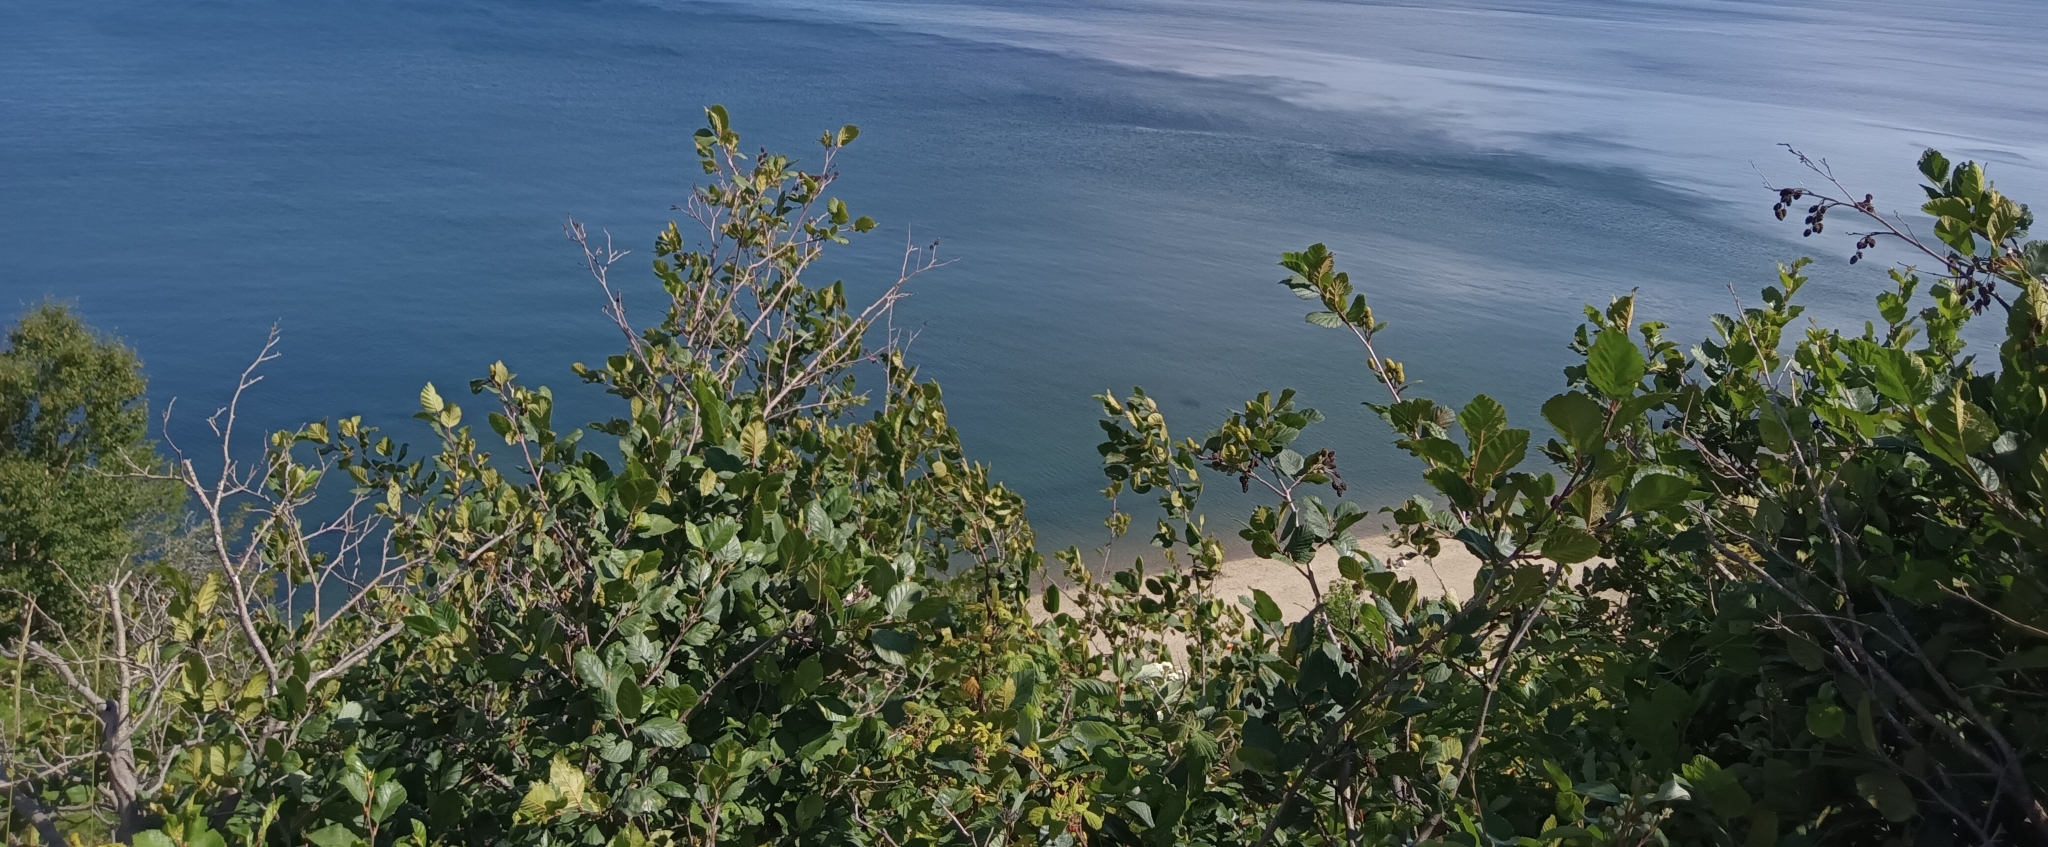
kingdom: Plantae
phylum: Tracheophyta
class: Magnoliopsida
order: Fagales
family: Betulaceae
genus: Alnus
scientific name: Alnus alnobetula
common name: Green alder
